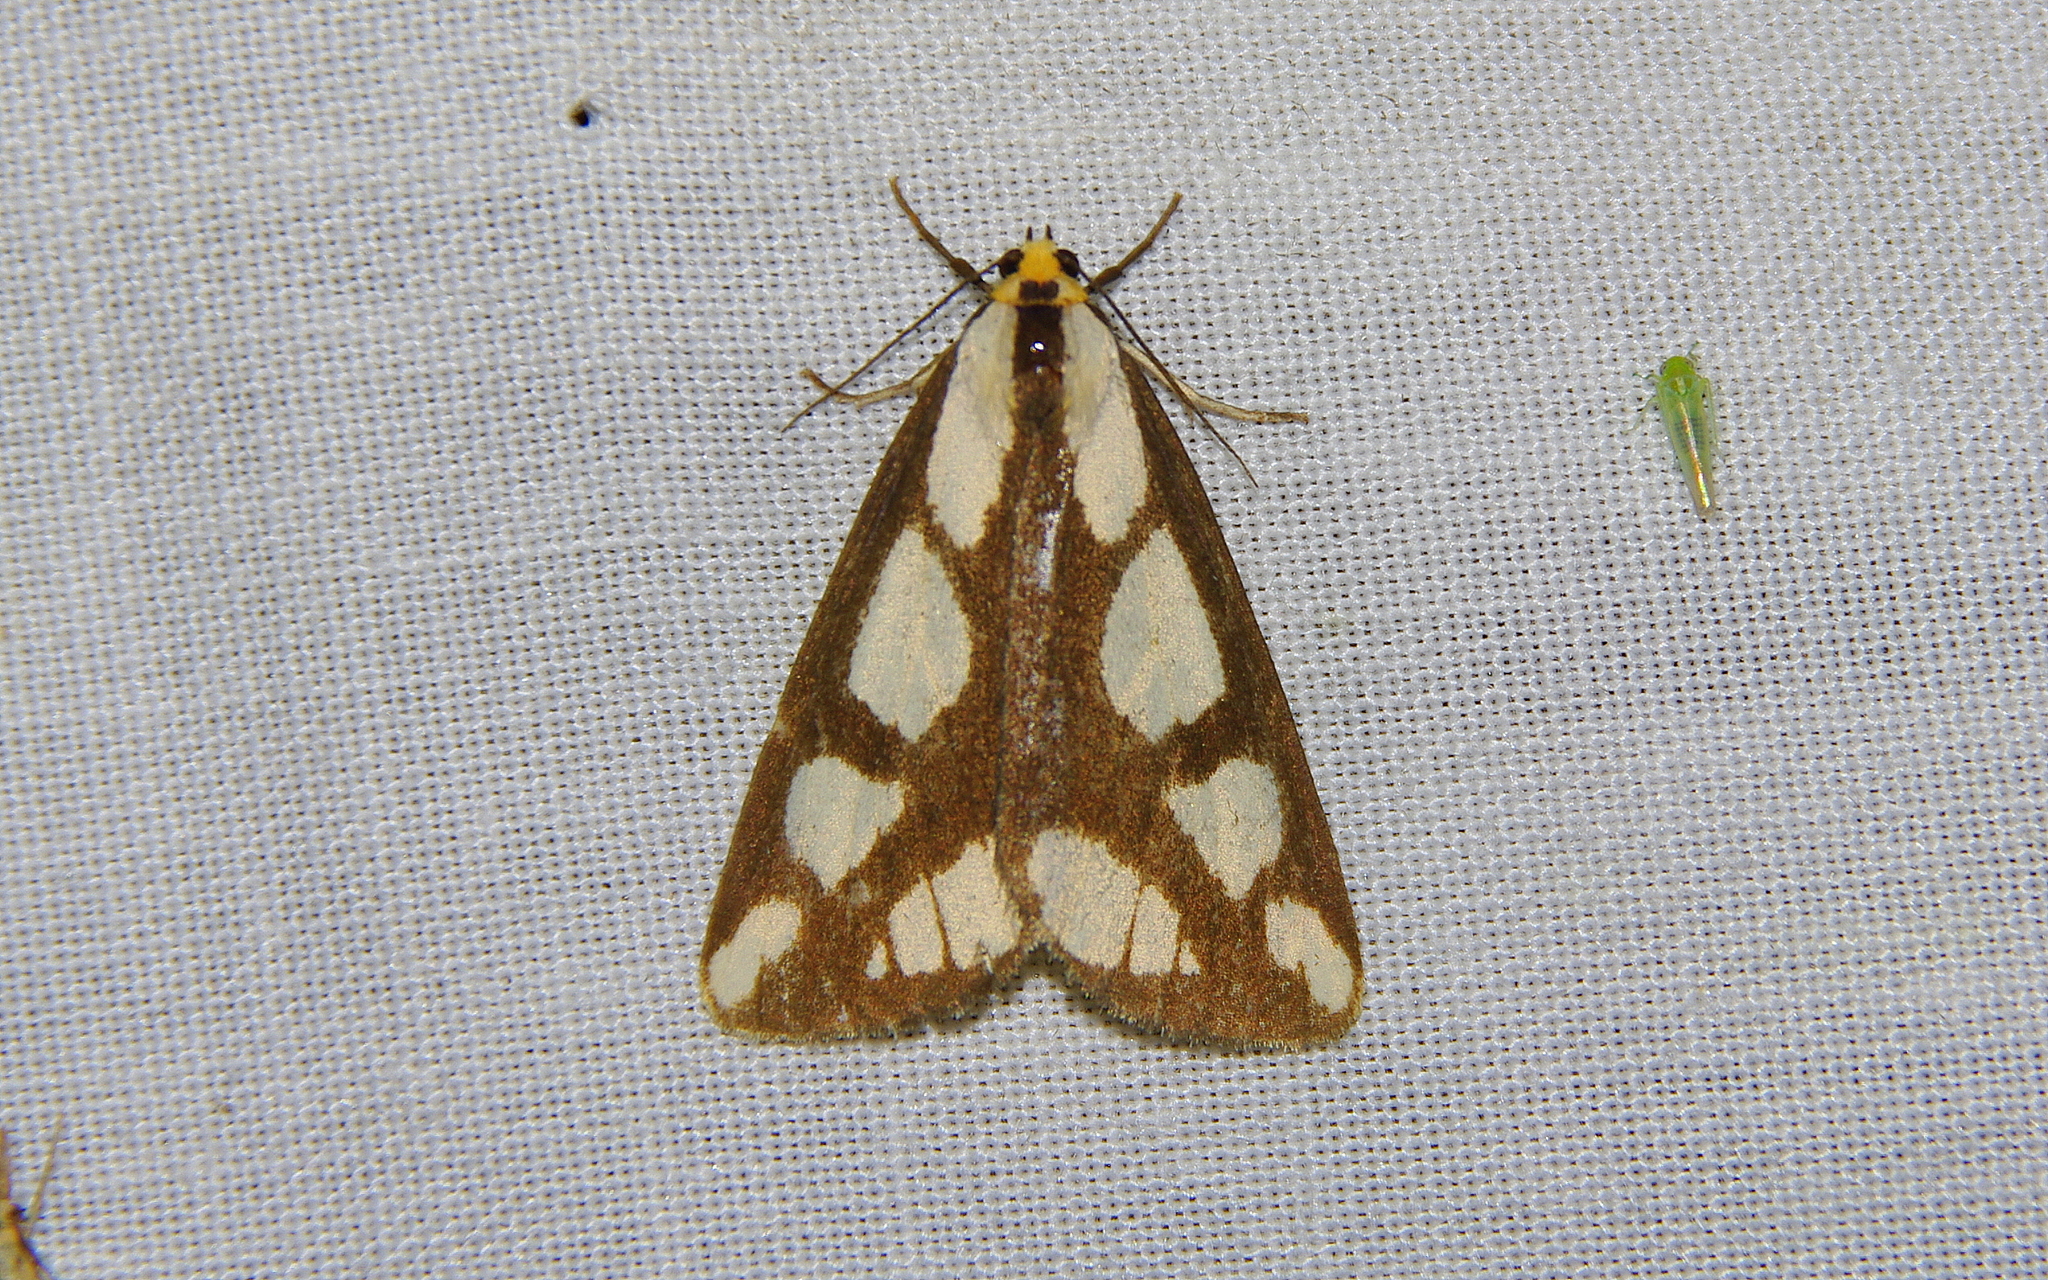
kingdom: Animalia
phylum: Arthropoda
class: Insecta
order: Lepidoptera
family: Erebidae
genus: Haploa
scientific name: Haploa lecontei
